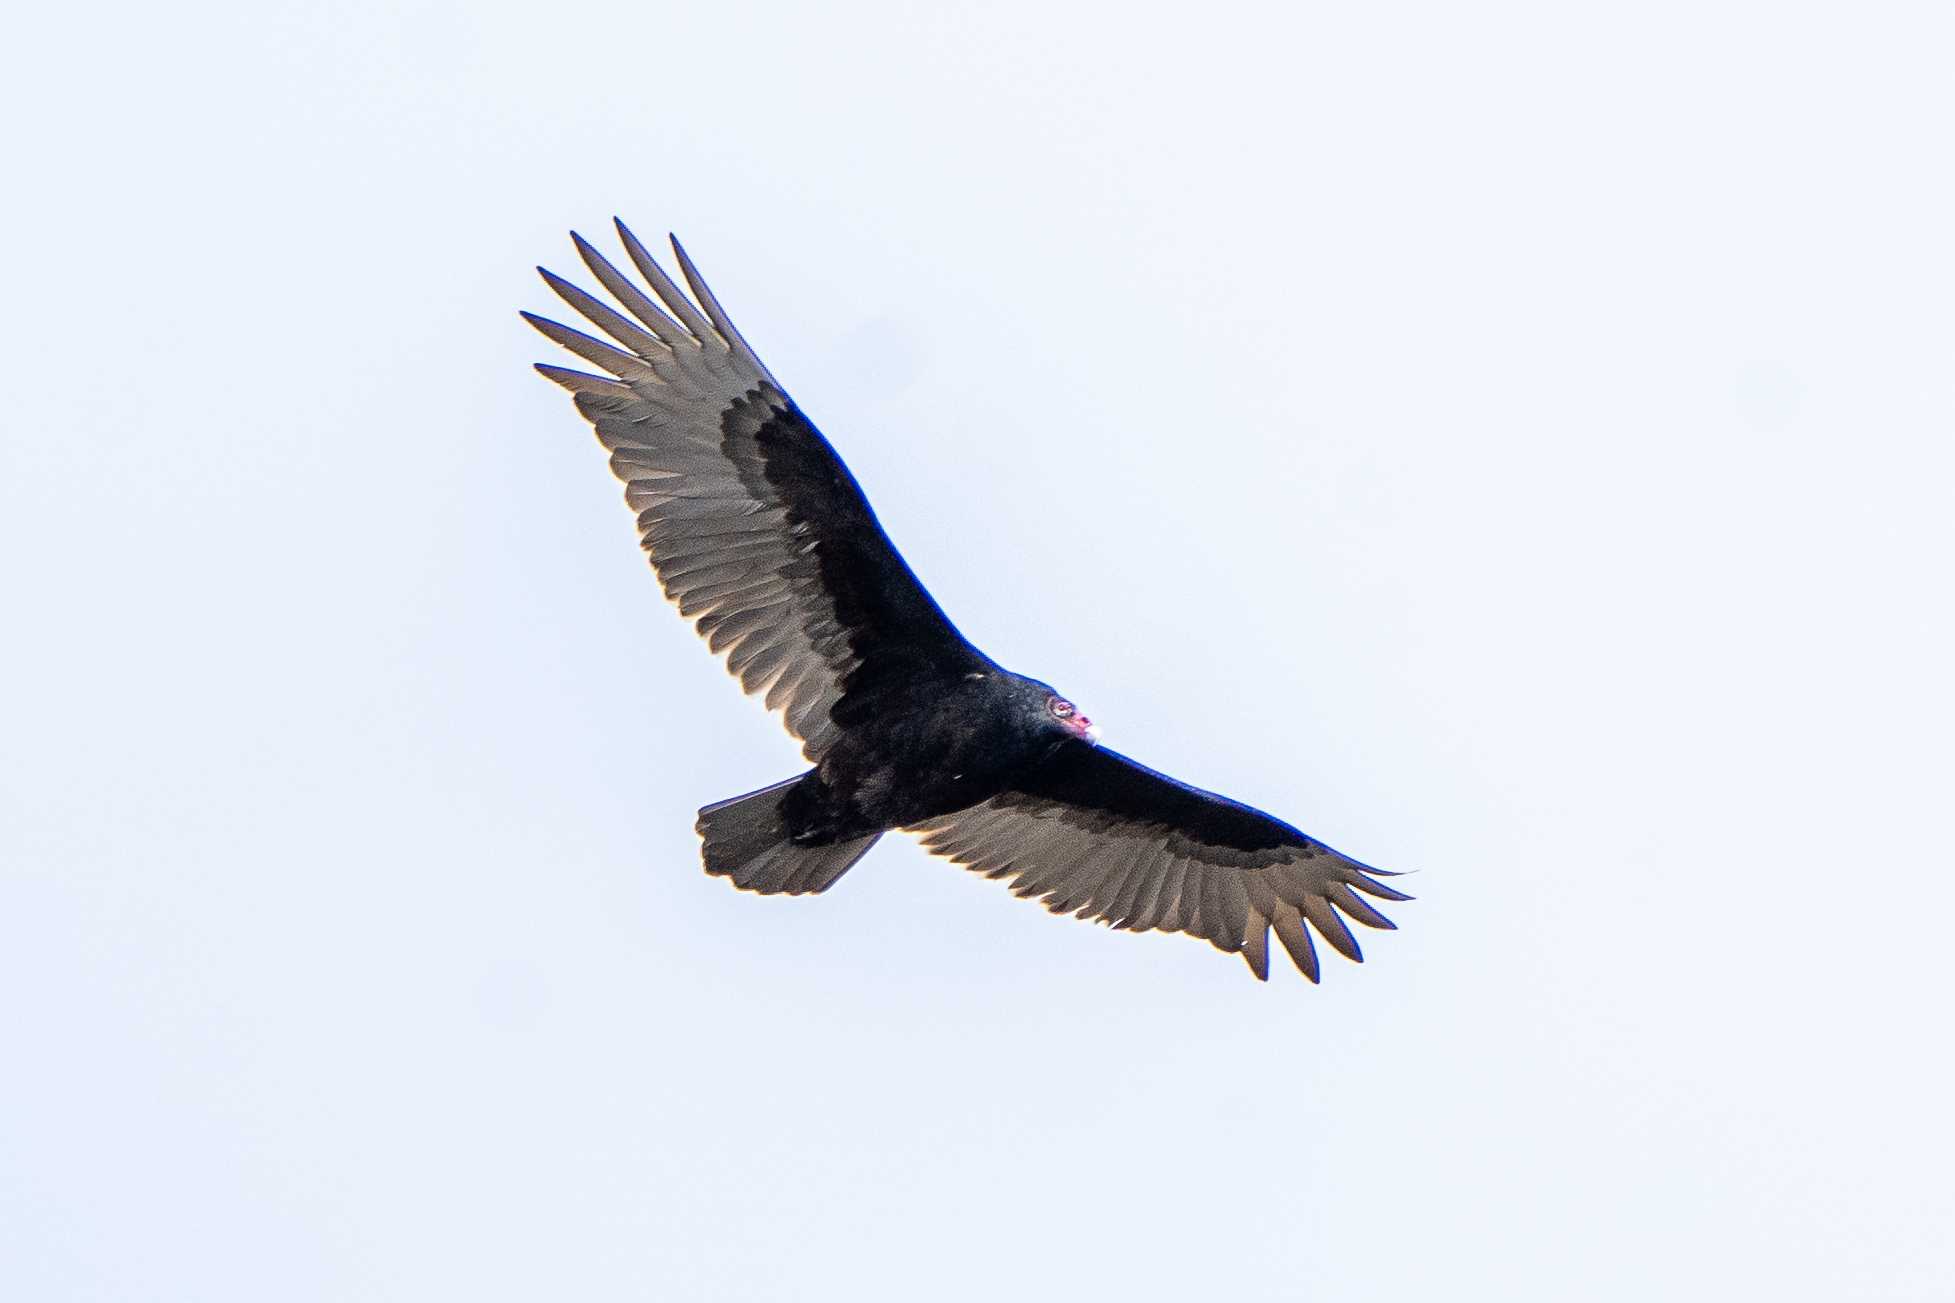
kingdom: Animalia
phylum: Chordata
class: Aves
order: Accipitriformes
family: Cathartidae
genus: Cathartes
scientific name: Cathartes aura
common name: Turkey vulture
